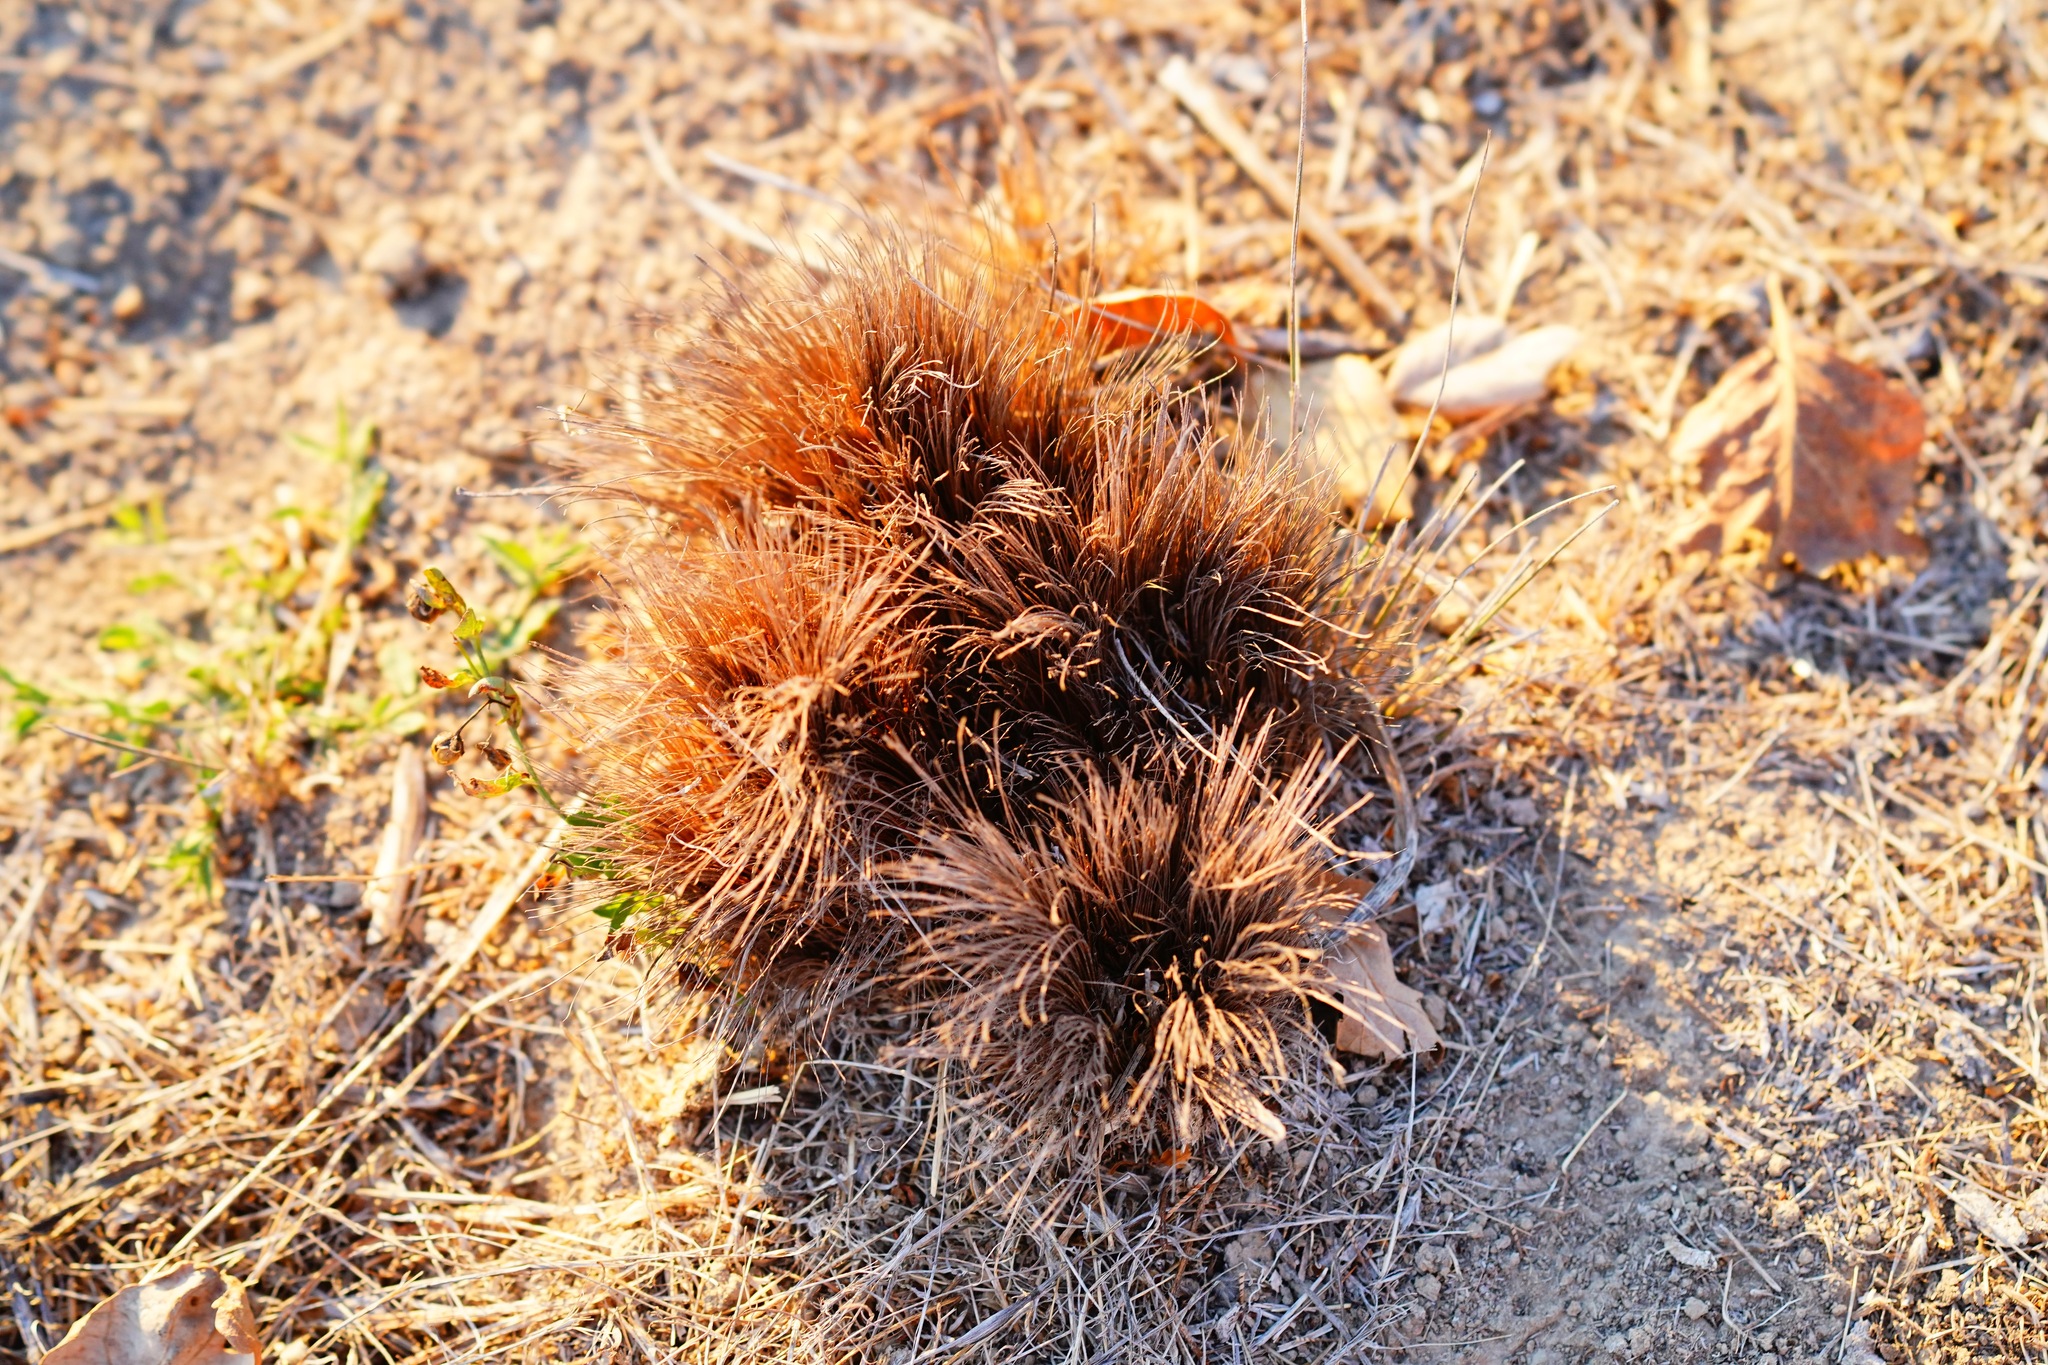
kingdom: Plantae
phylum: Tracheophyta
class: Liliopsida
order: Asparagales
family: Asparagaceae
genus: Chlorogalum
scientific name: Chlorogalum pomeridianum
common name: Amole
